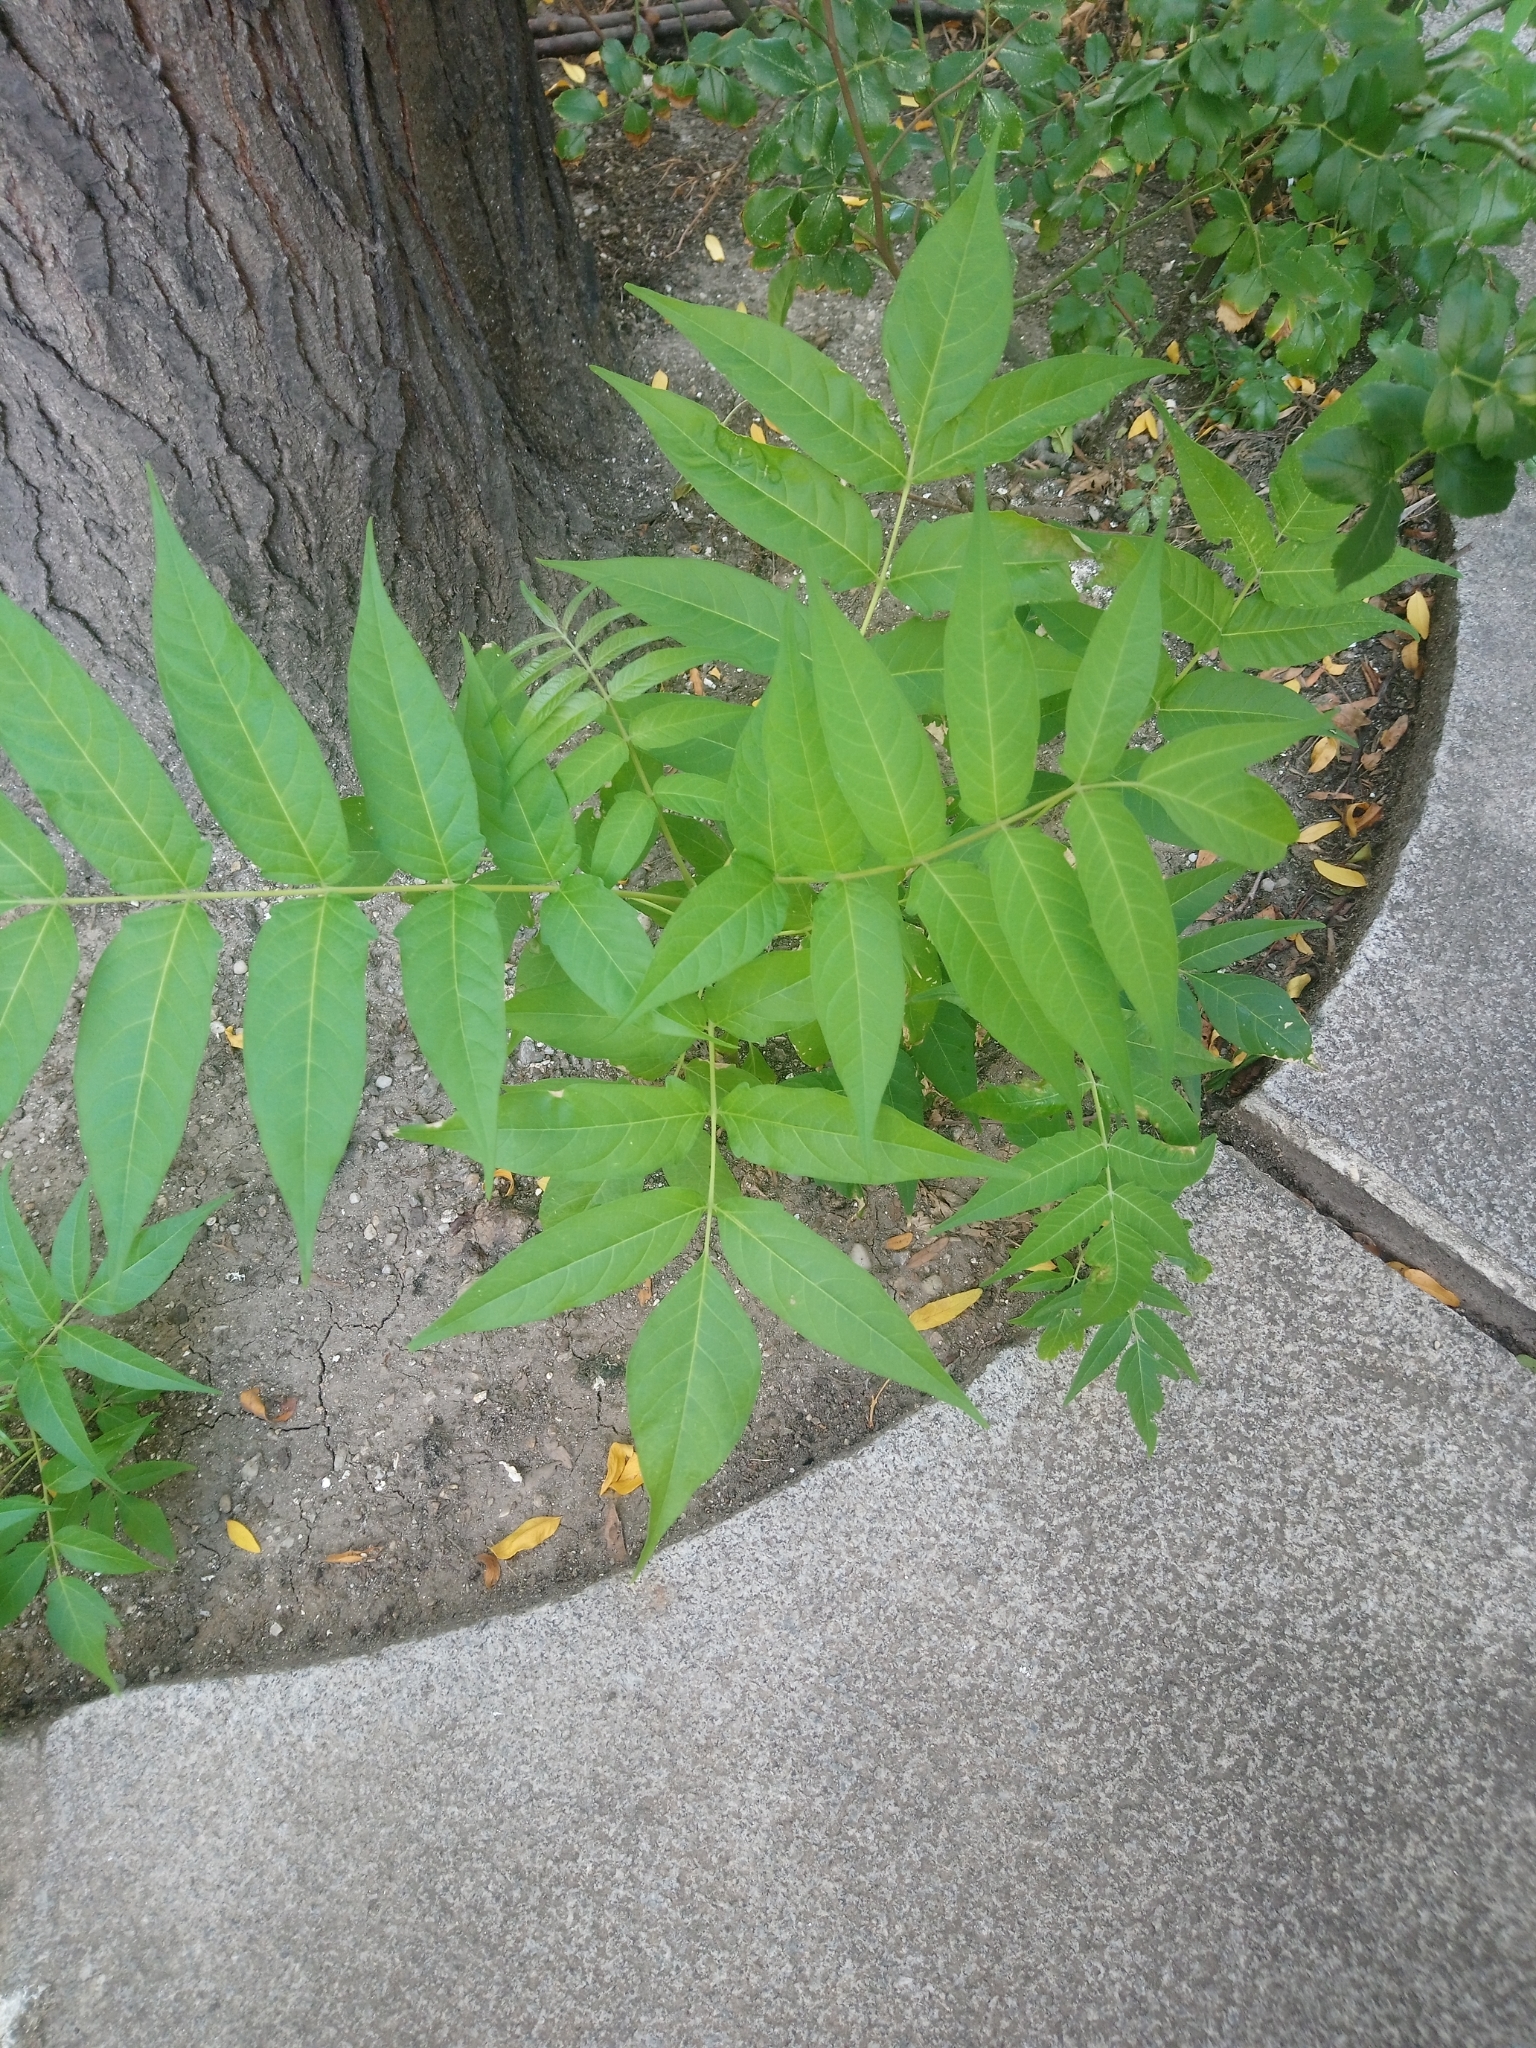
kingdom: Plantae
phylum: Tracheophyta
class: Magnoliopsida
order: Sapindales
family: Simaroubaceae
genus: Ailanthus
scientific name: Ailanthus altissima
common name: Tree-of-heaven
